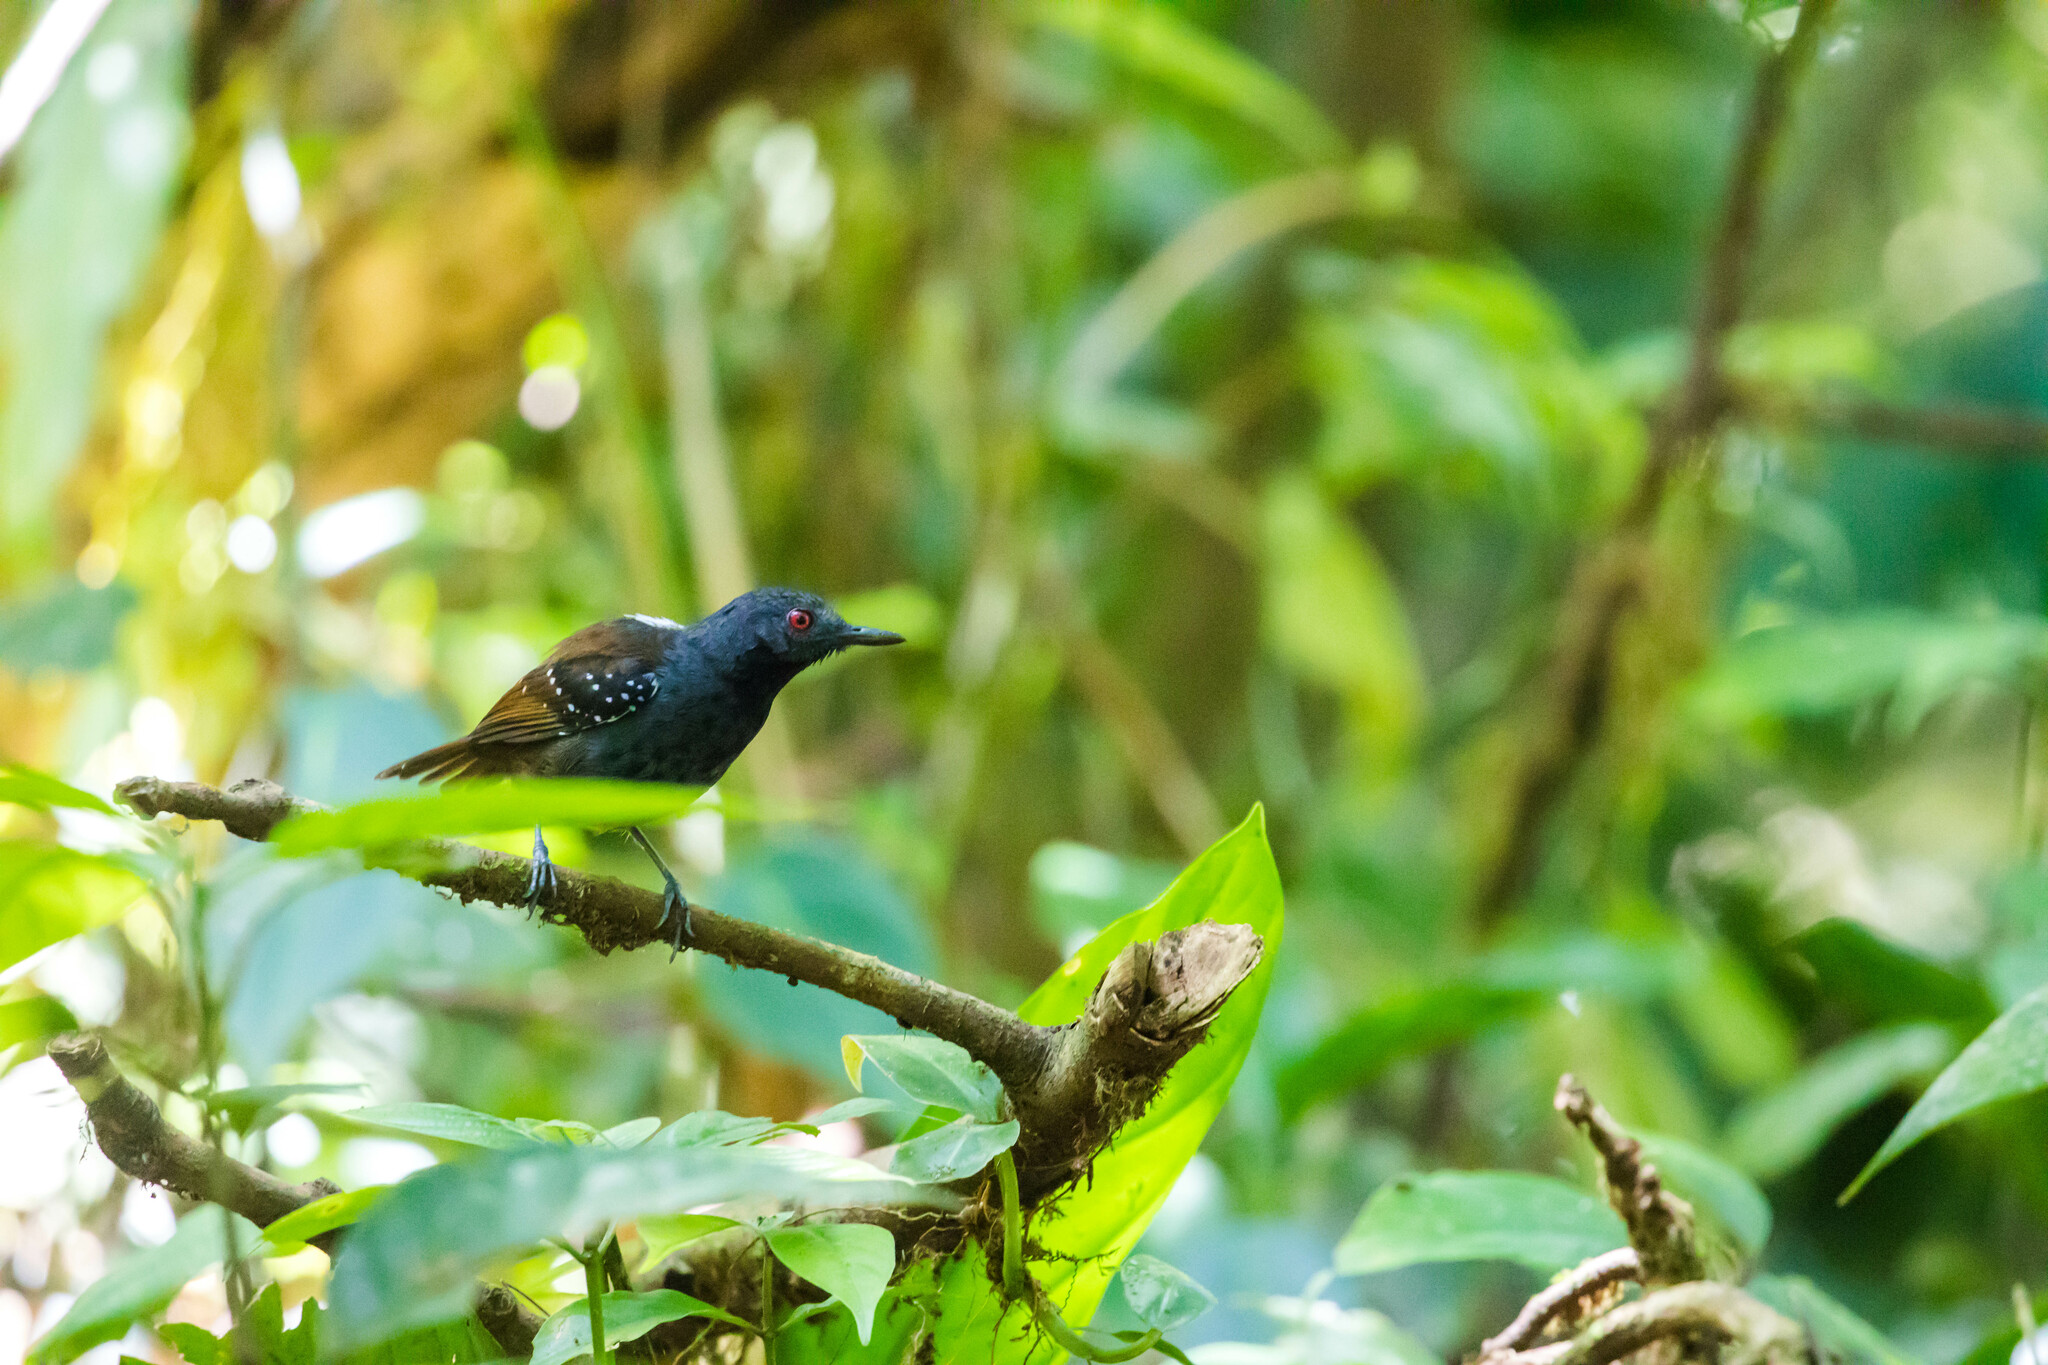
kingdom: Animalia
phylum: Chordata
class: Aves
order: Passeriformes
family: Thamnophilidae
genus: Sipia
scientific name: Sipia laemosticta
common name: Dull-mantled antbird
